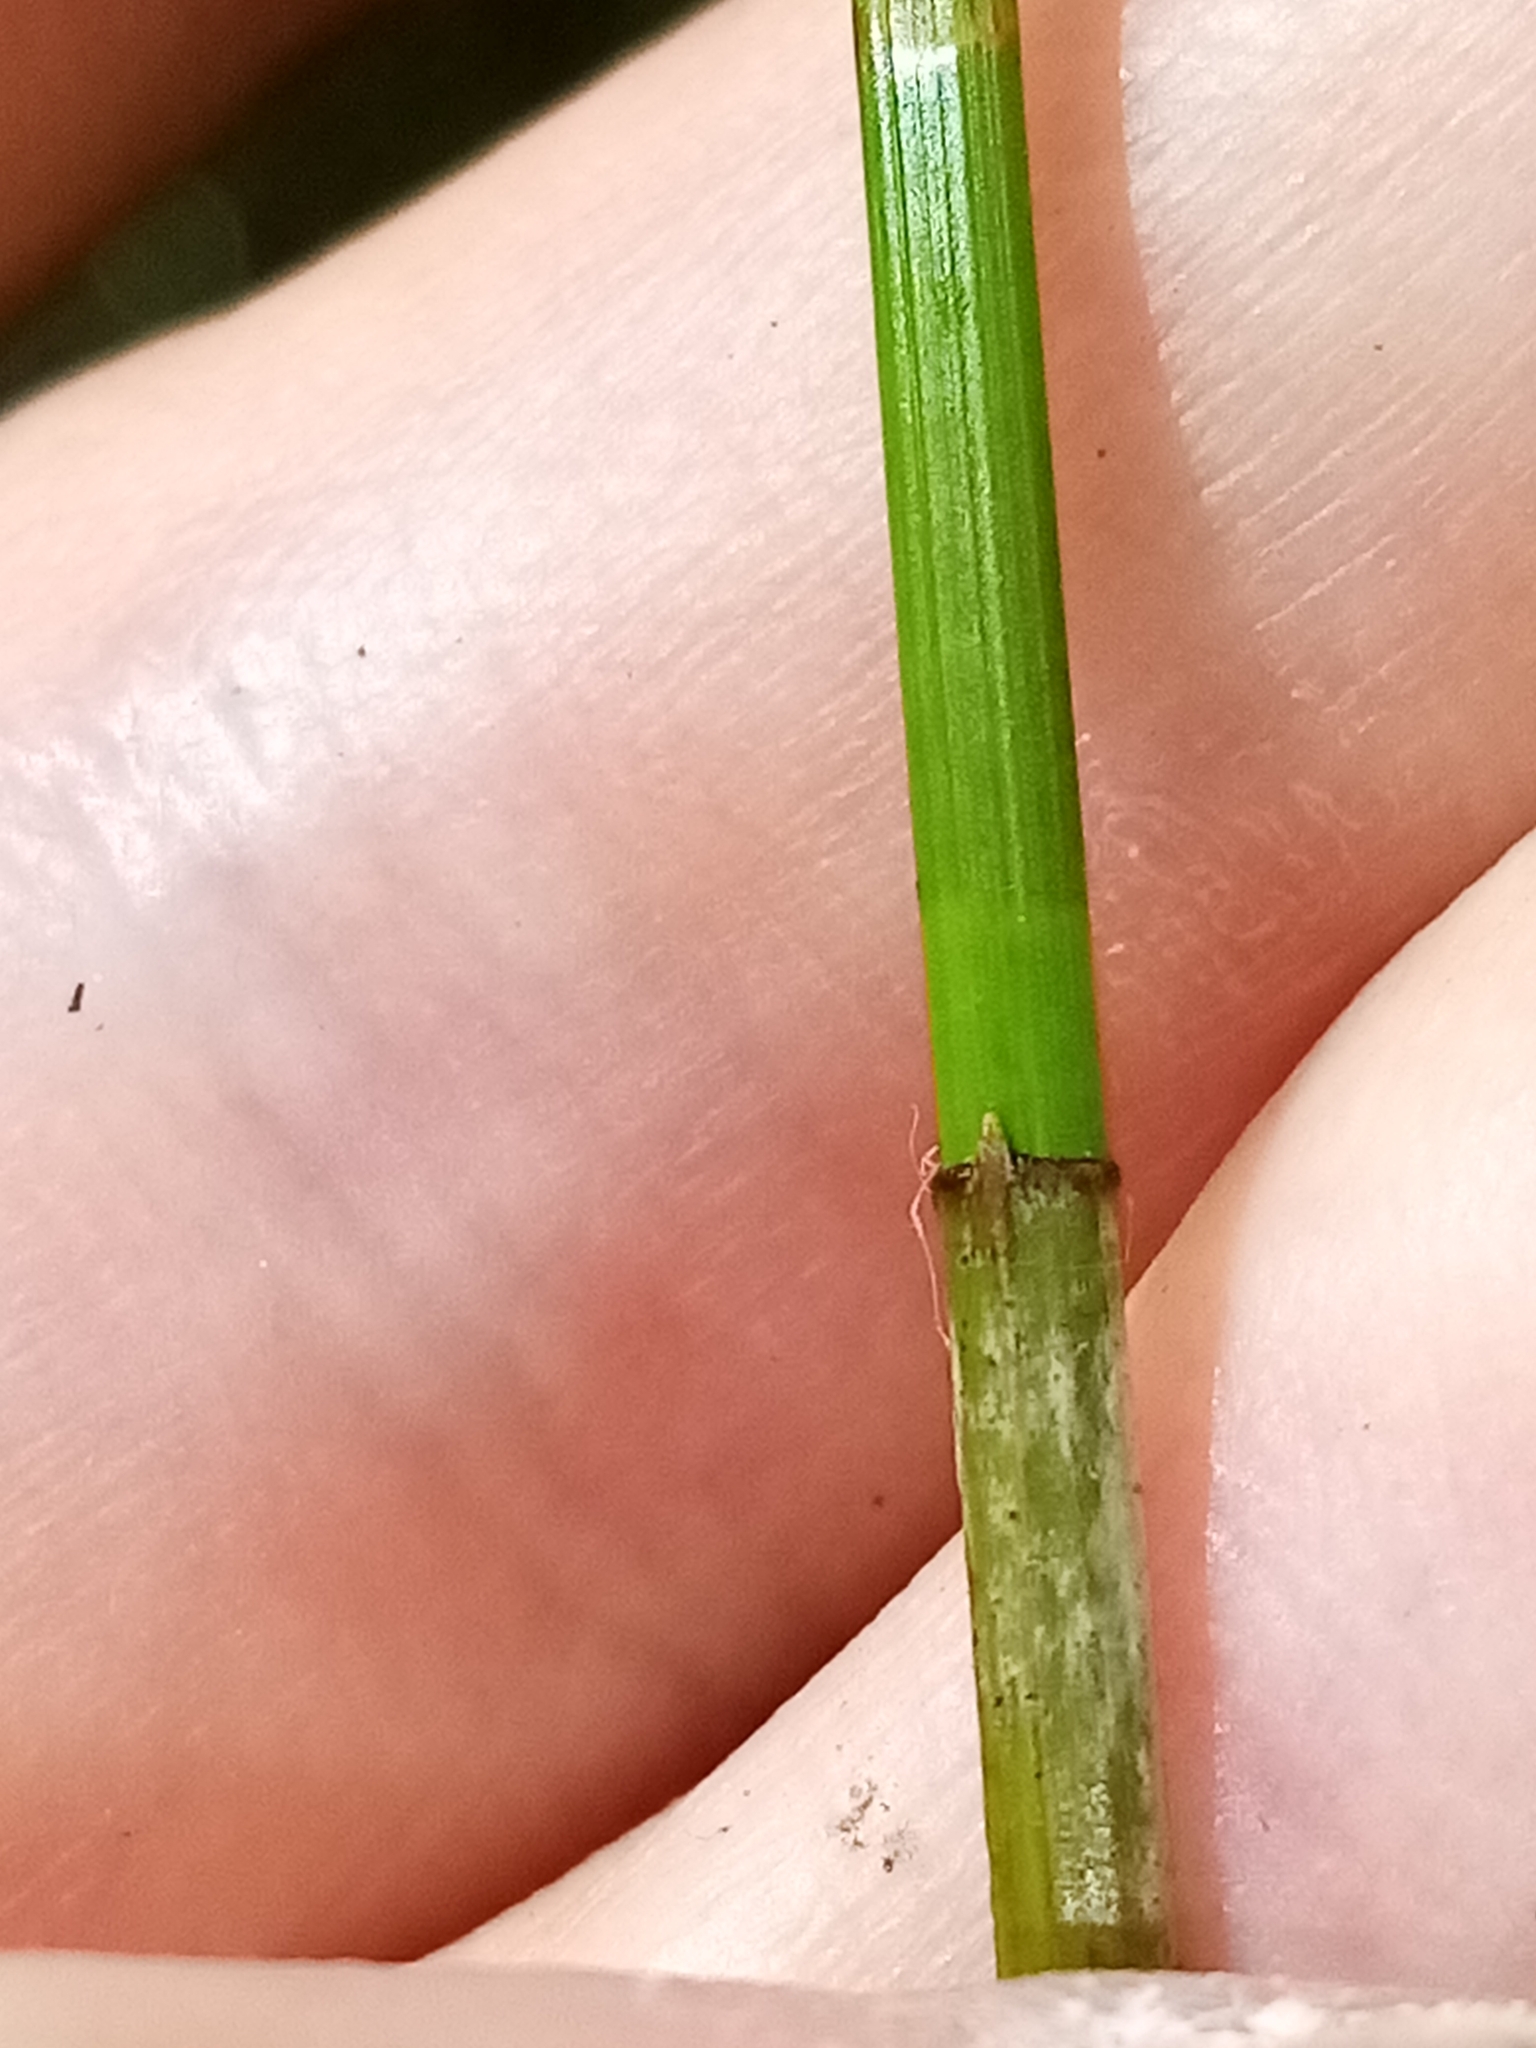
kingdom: Plantae
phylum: Tracheophyta
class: Liliopsida
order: Poales
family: Cyperaceae
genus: Eleocharis
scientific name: Eleocharis acuta
